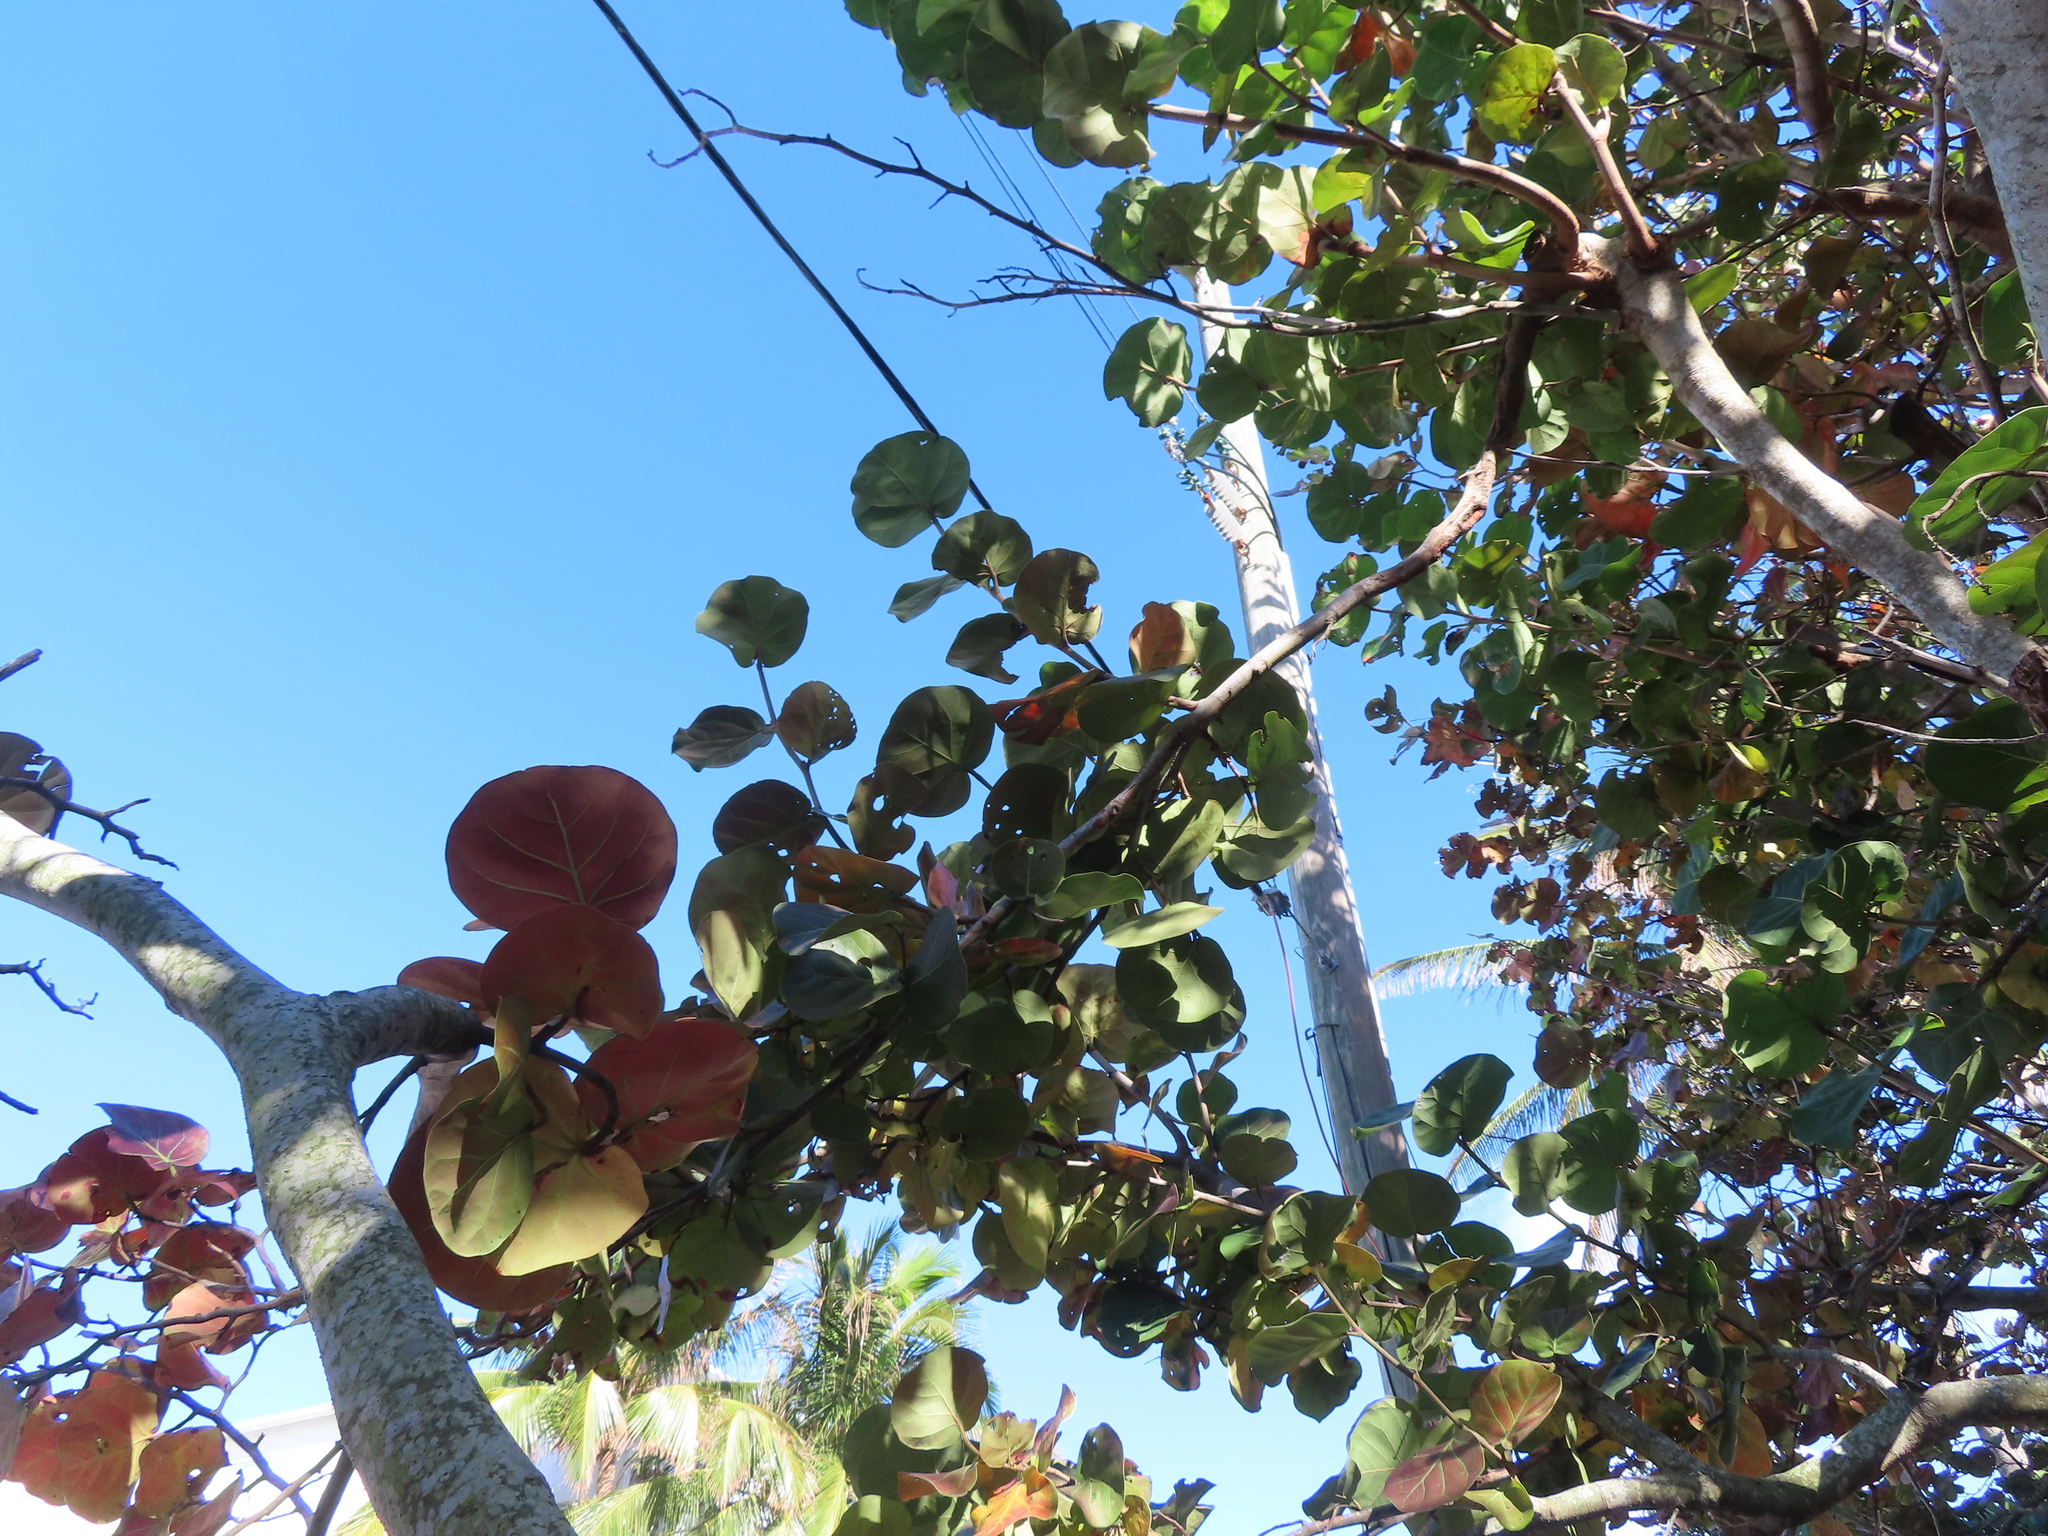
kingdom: Plantae
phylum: Tracheophyta
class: Magnoliopsida
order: Caryophyllales
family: Polygonaceae
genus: Coccoloba
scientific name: Coccoloba uvifera
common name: Seagrape
